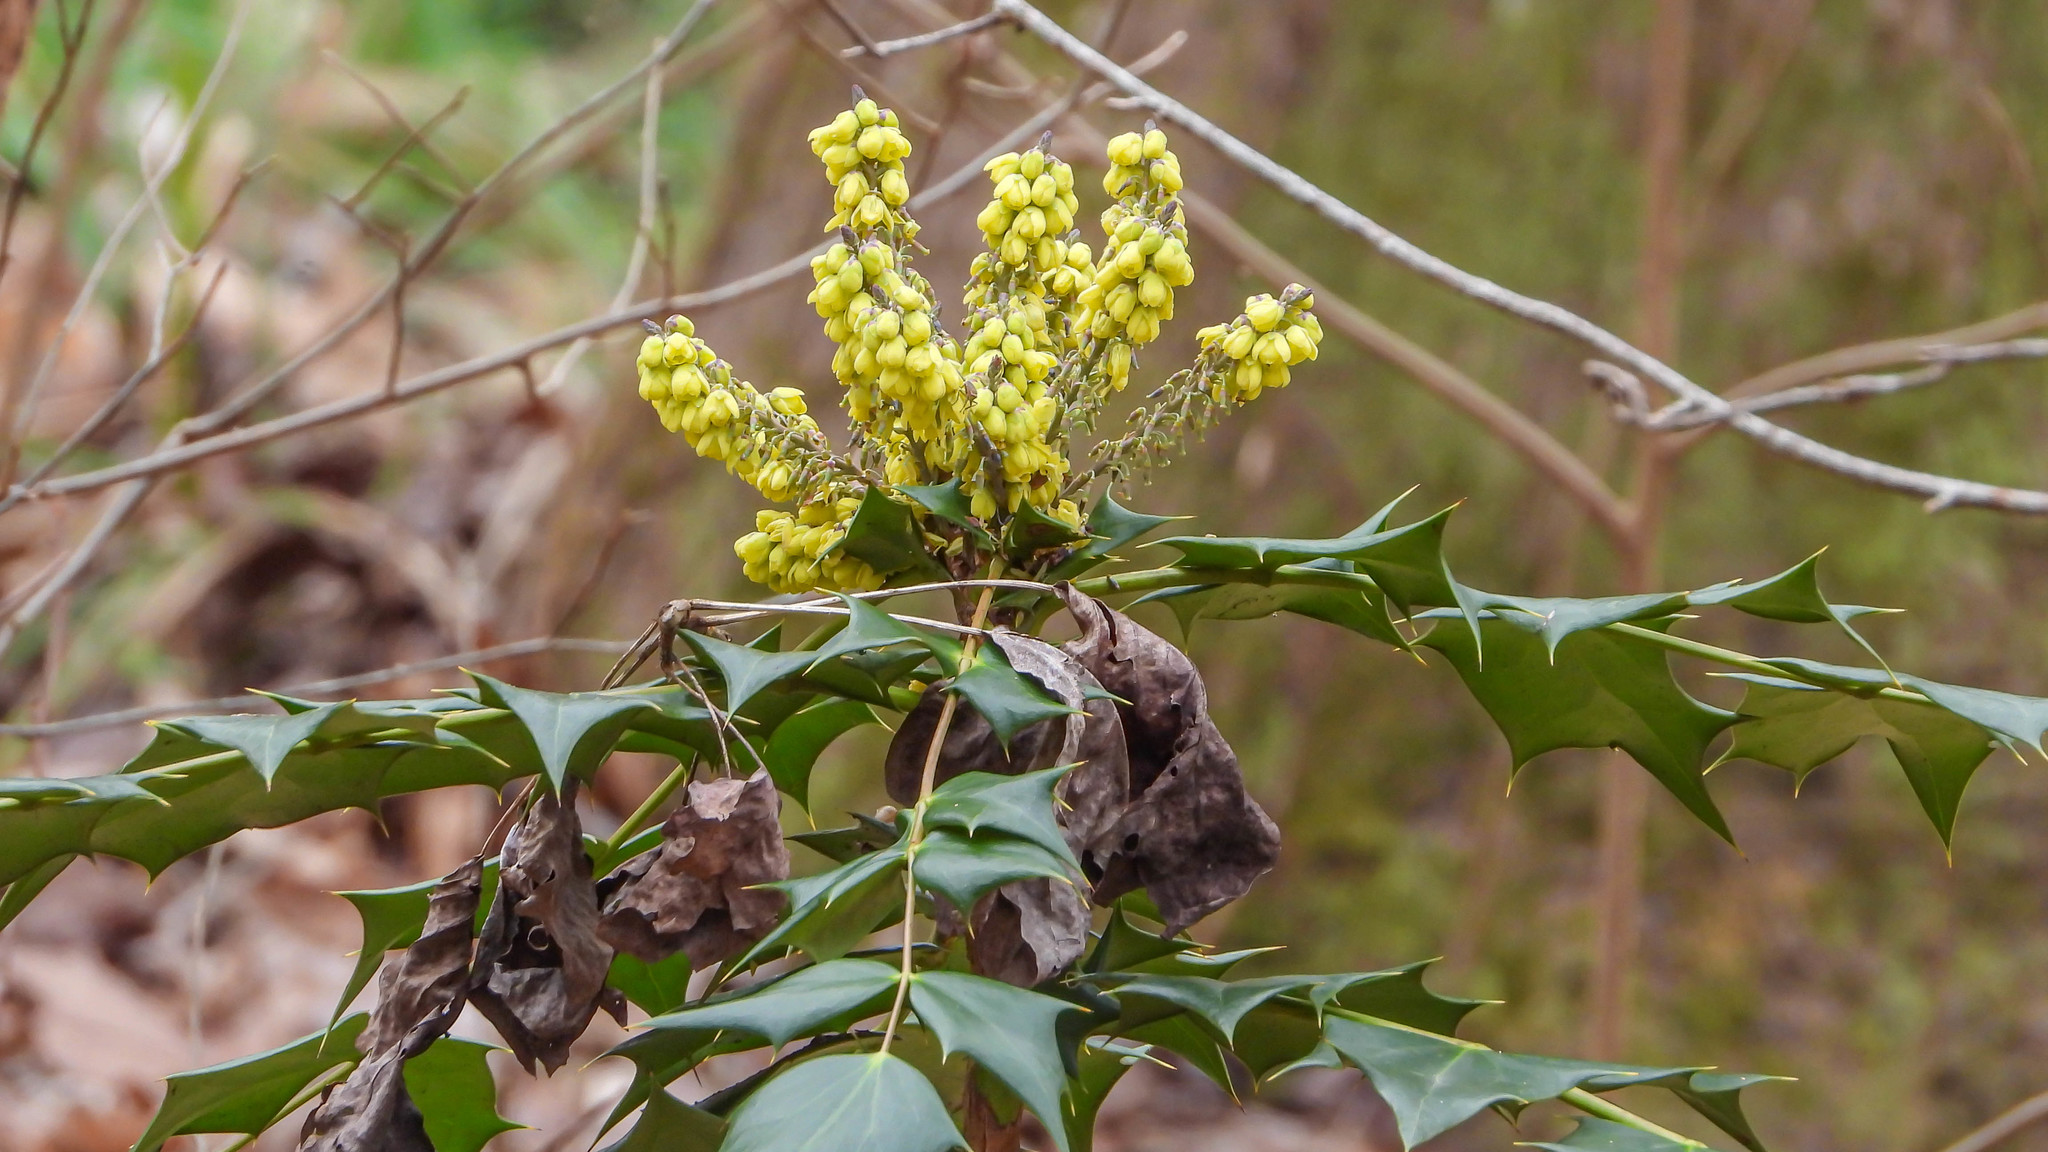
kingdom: Plantae
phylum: Tracheophyta
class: Magnoliopsida
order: Ranunculales
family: Berberidaceae
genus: Mahonia
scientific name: Mahonia bealei
